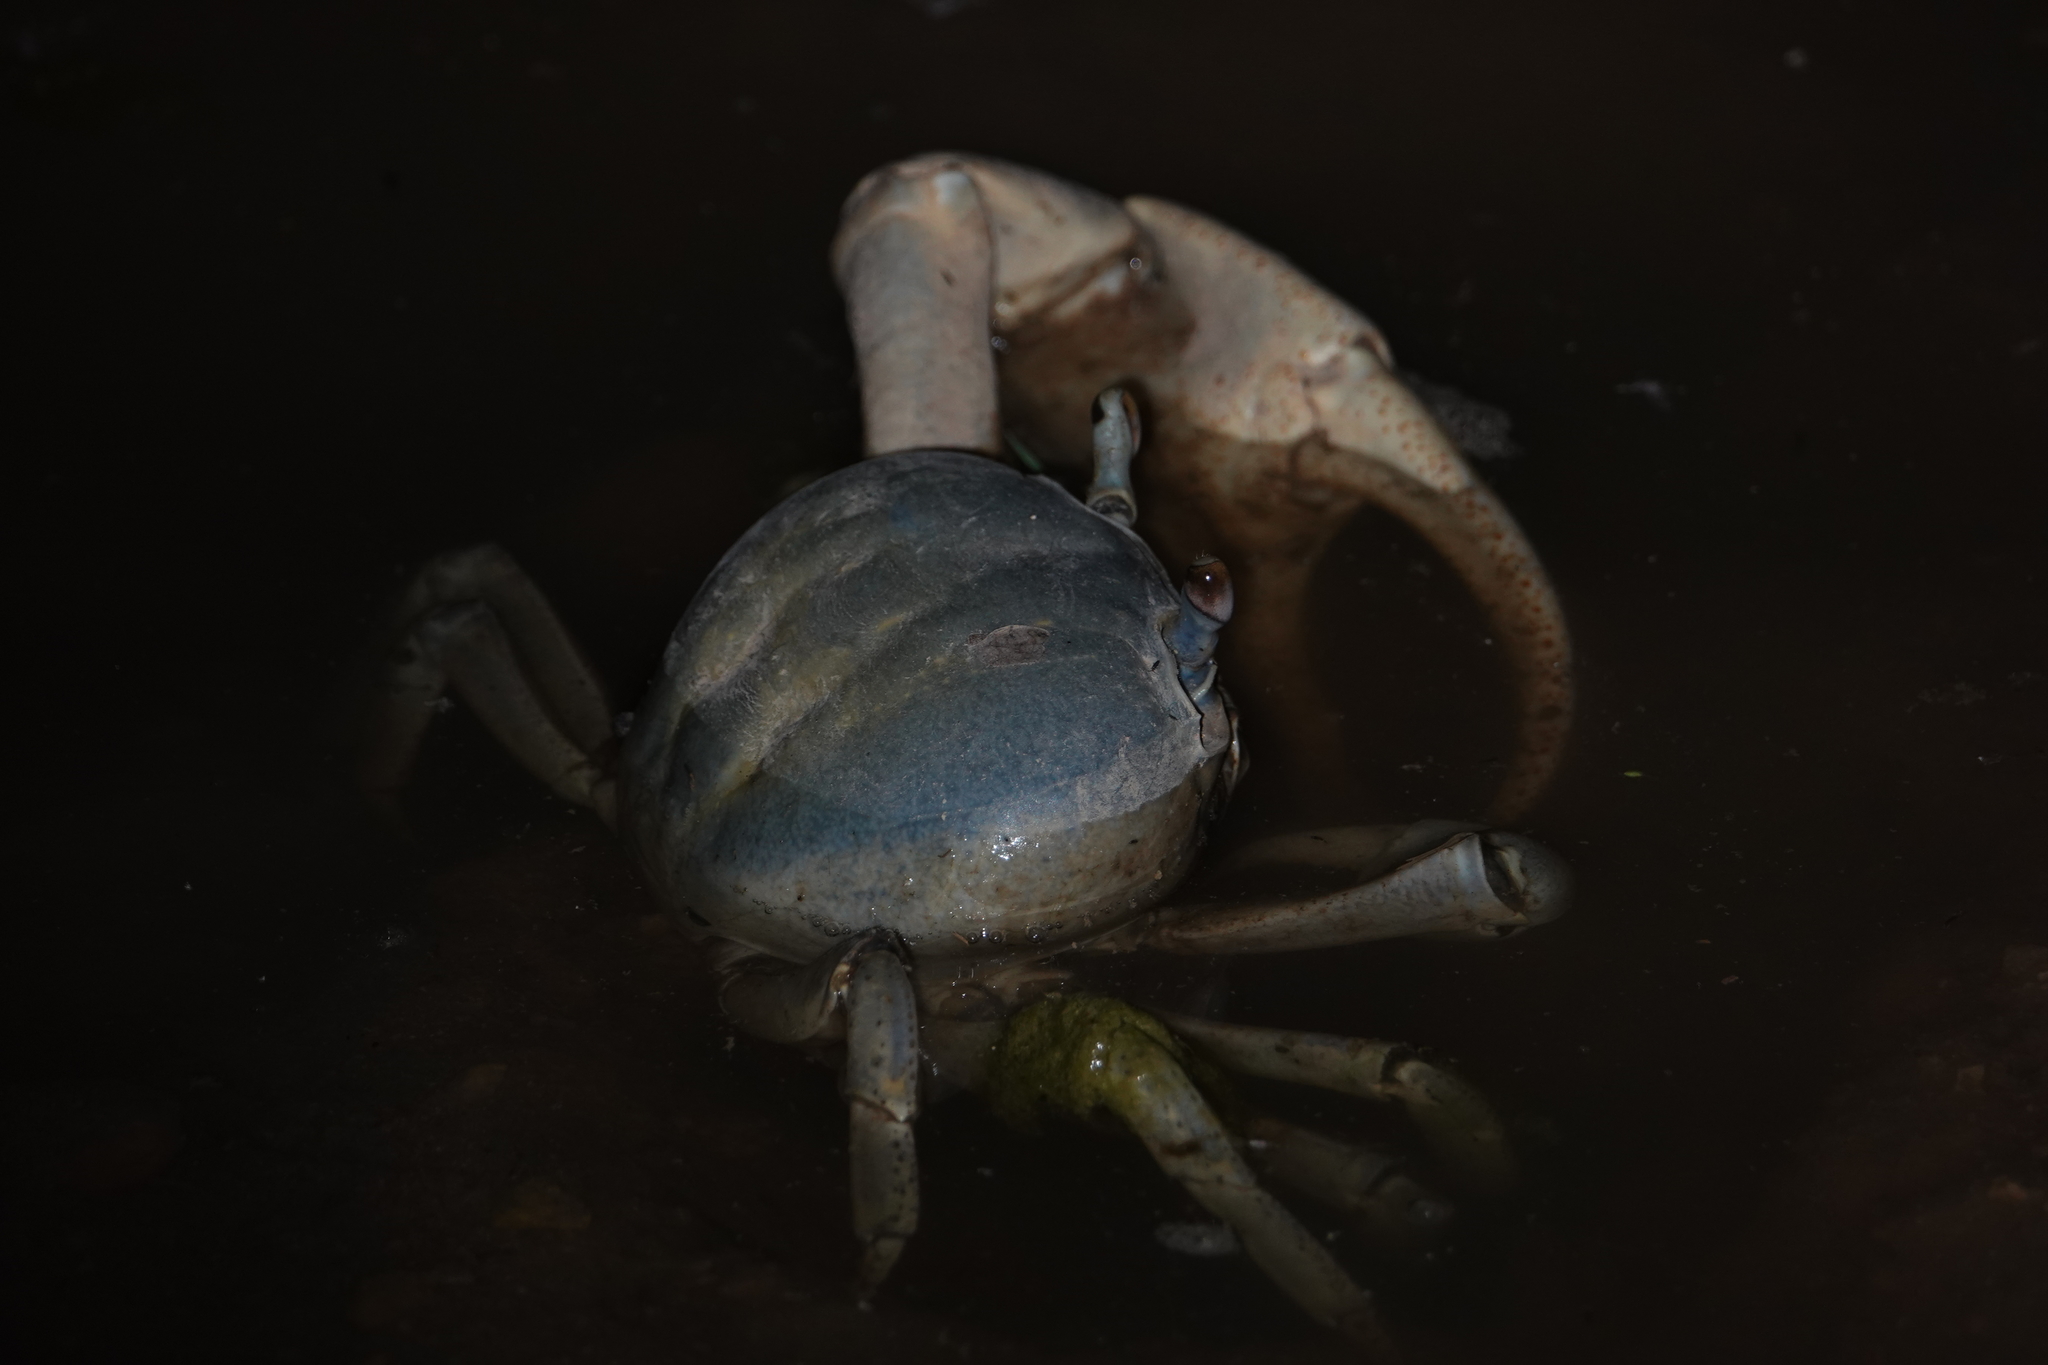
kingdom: Animalia
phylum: Arthropoda
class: Malacostraca
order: Decapoda
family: Gecarcinidae
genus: Cardisoma
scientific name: Cardisoma guanhumi
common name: Great land crab
